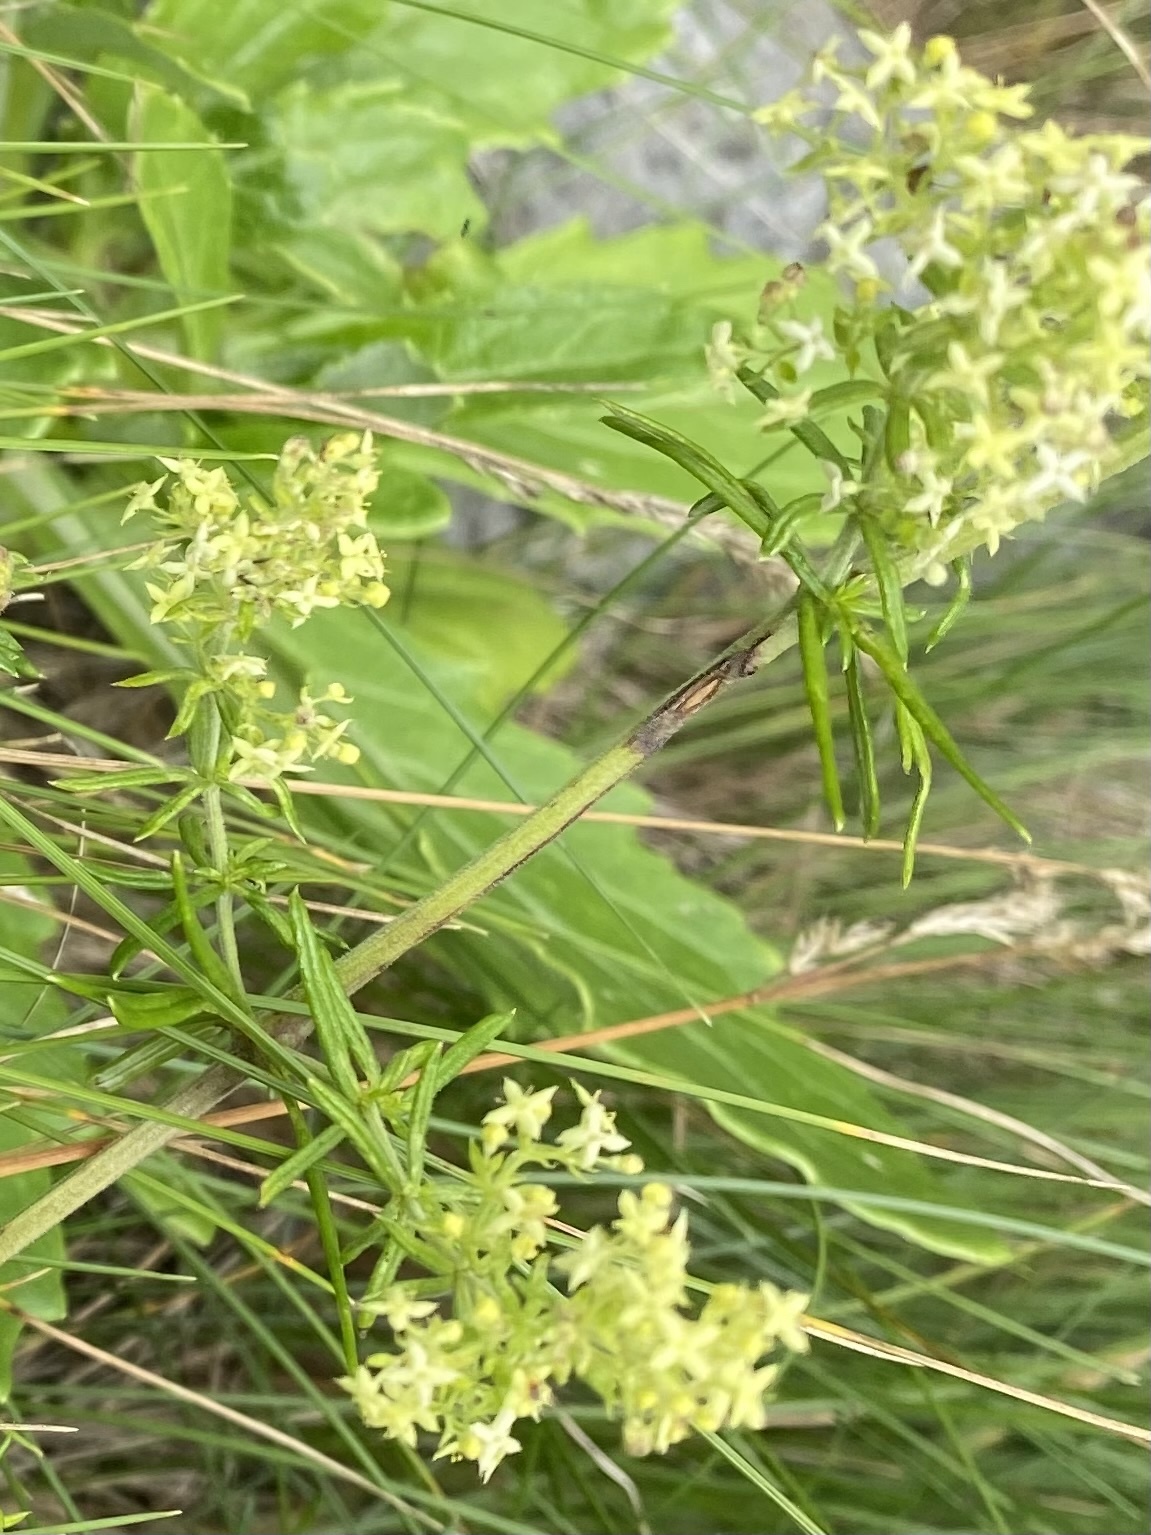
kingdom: Plantae
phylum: Tracheophyta
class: Magnoliopsida
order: Gentianales
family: Rubiaceae
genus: Galium
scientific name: Galium verum
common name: Lady's bedstraw
